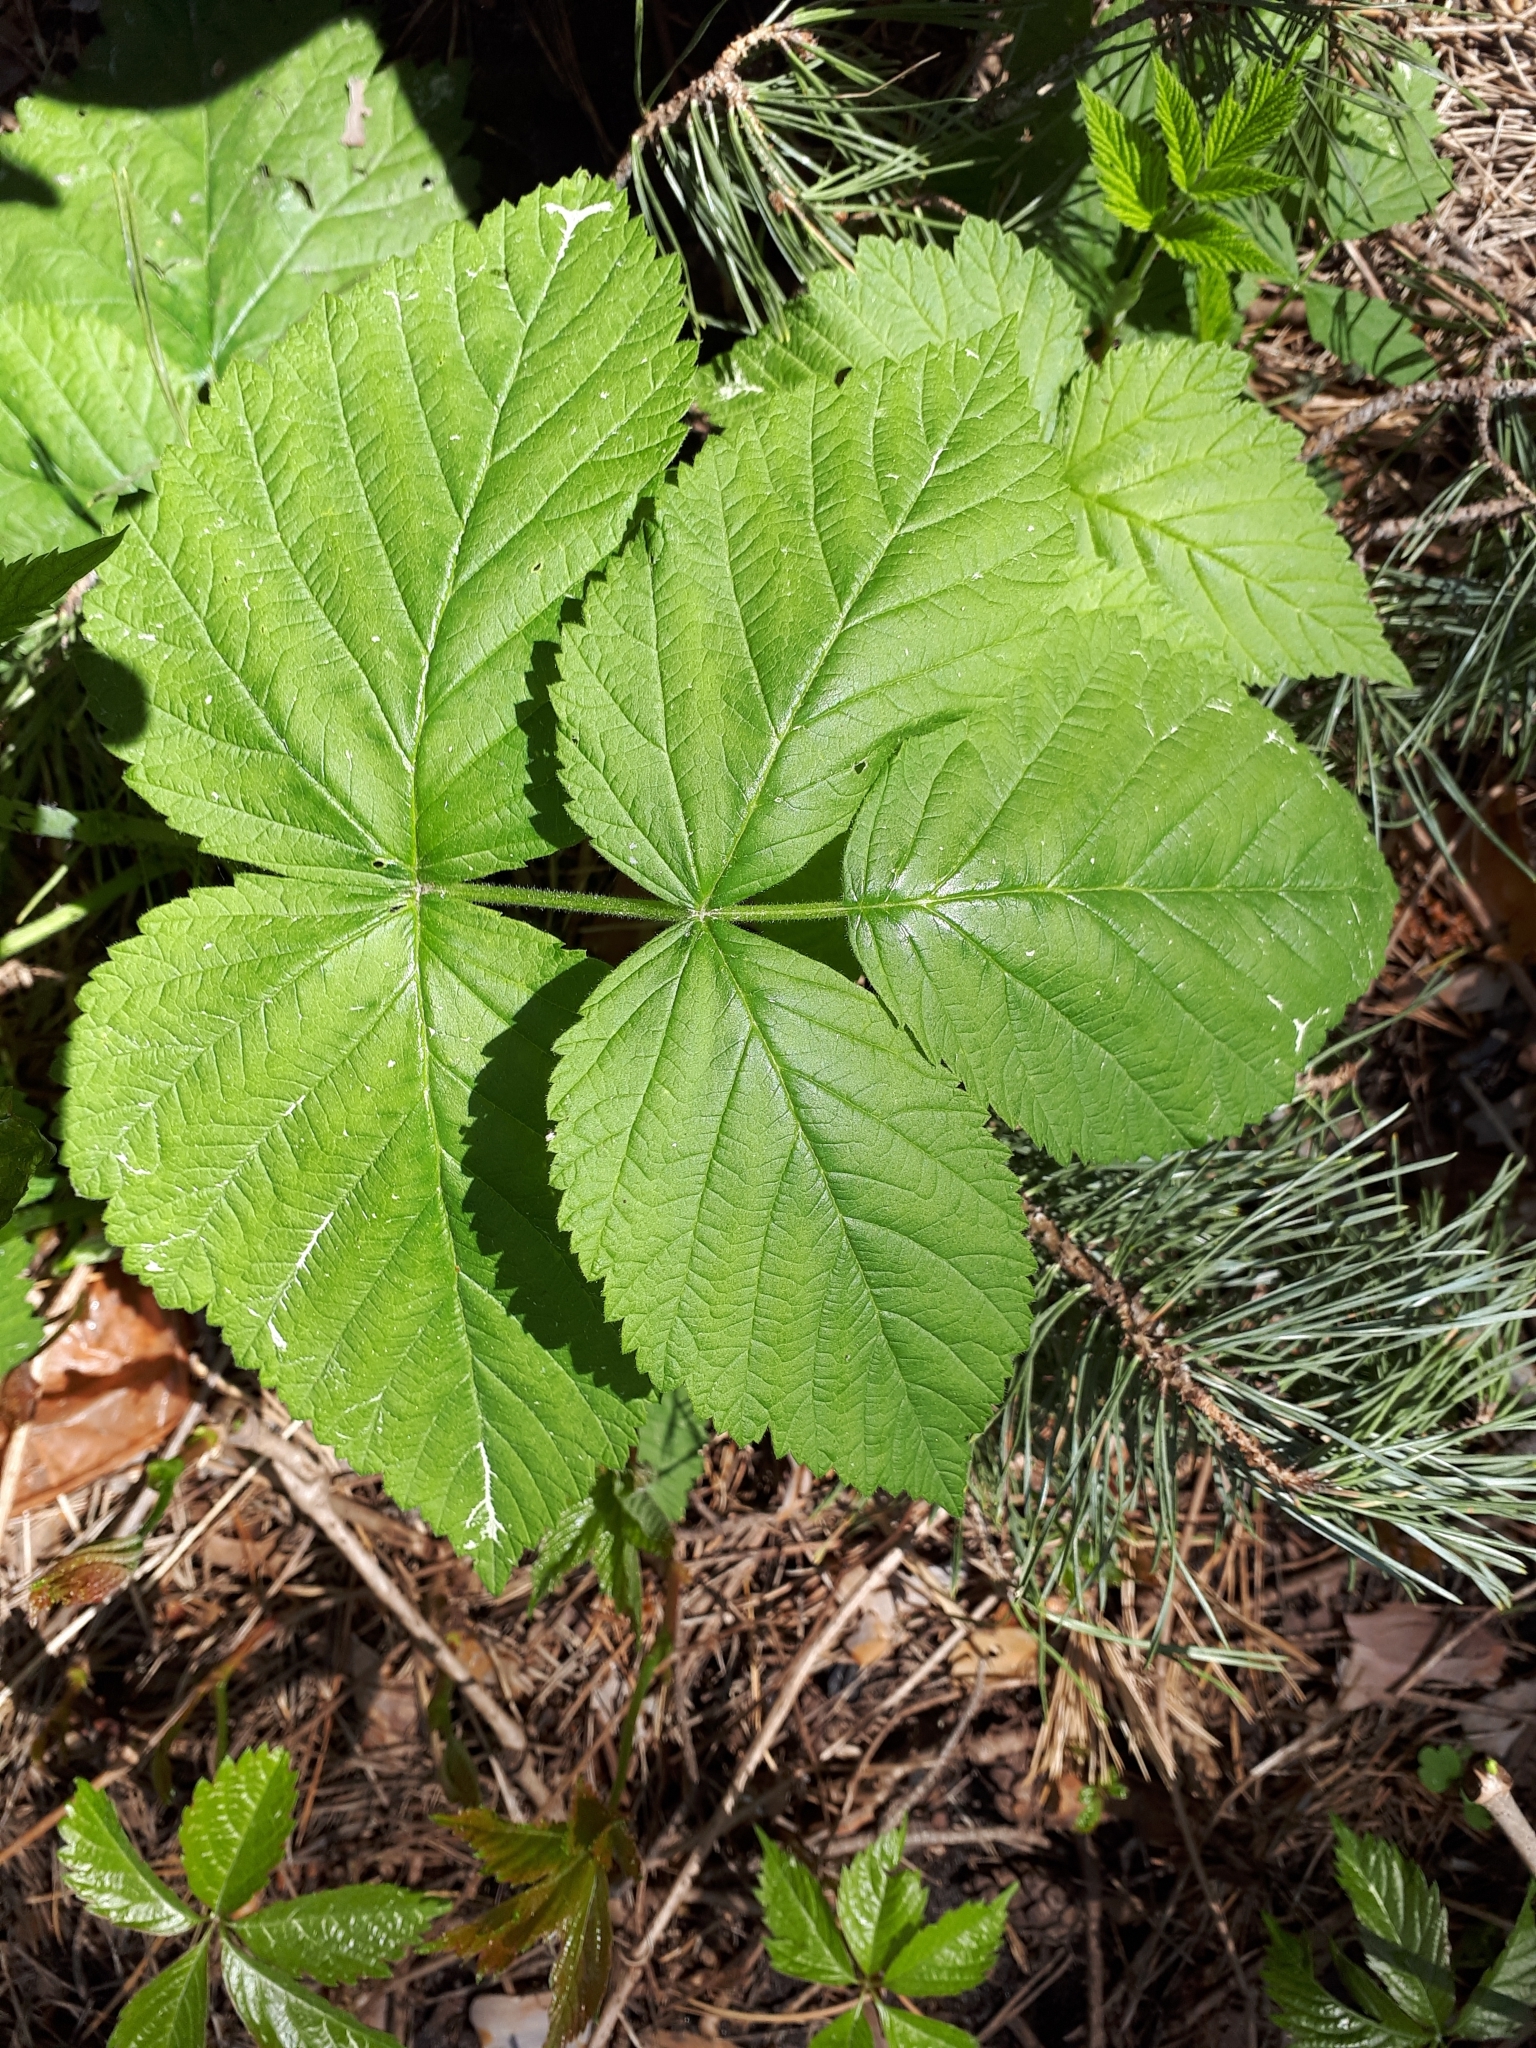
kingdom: Plantae
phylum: Tracheophyta
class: Magnoliopsida
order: Rosales
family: Rosaceae
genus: Rubus
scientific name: Rubus idaeus
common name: Raspberry
